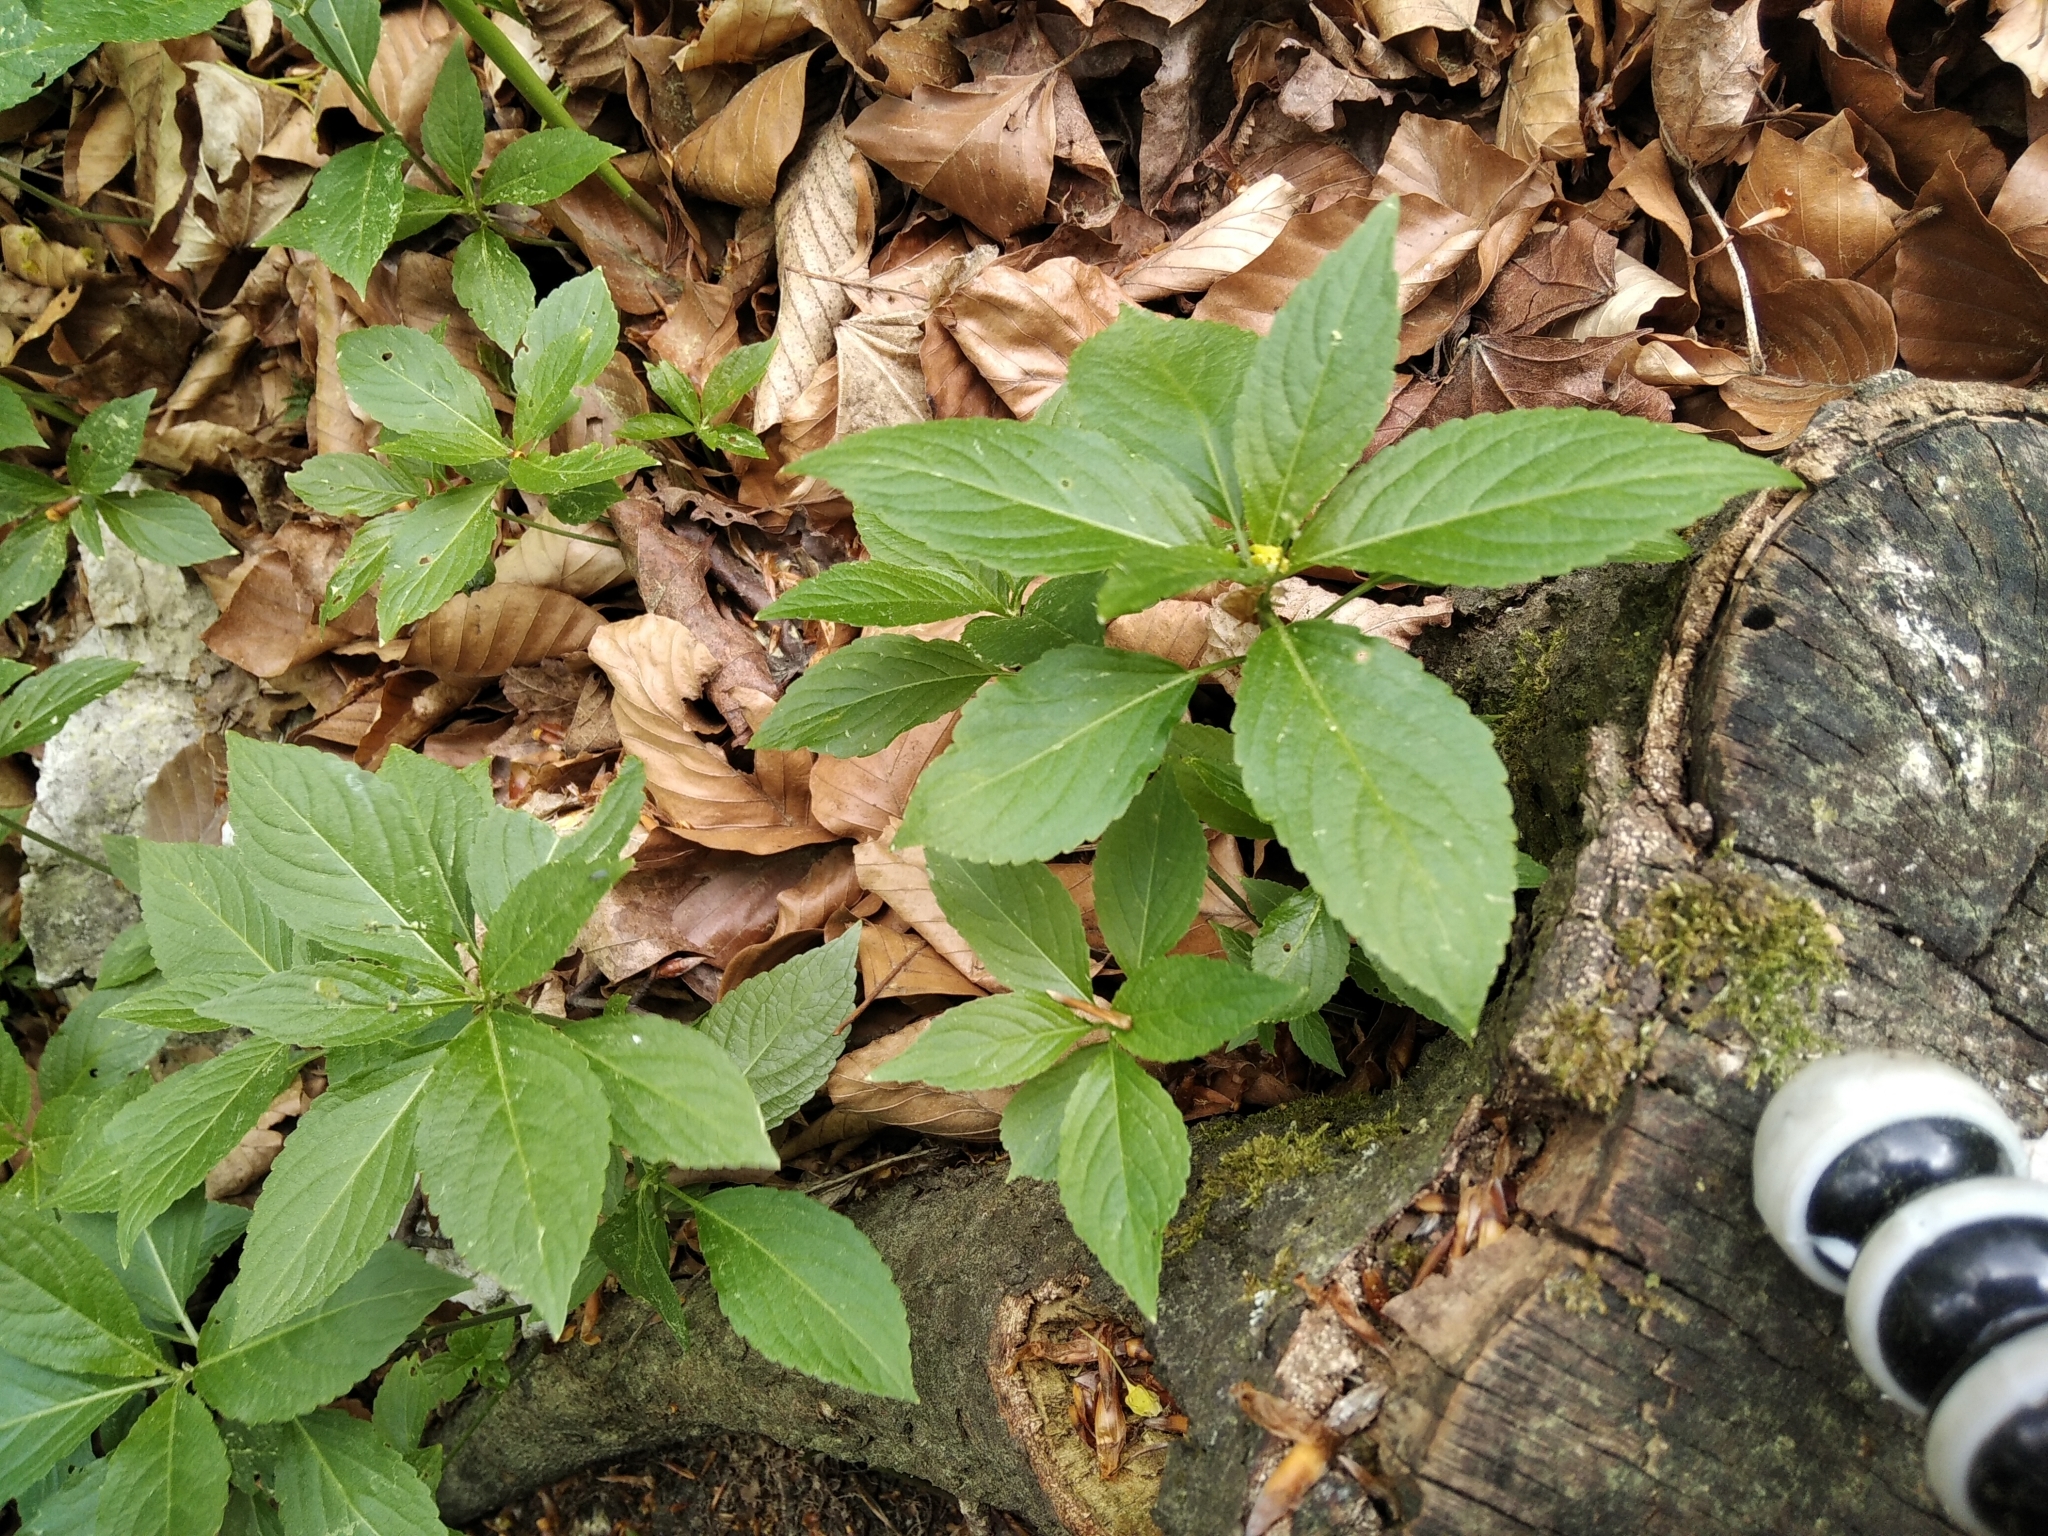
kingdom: Plantae
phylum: Tracheophyta
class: Magnoliopsida
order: Malpighiales
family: Euphorbiaceae
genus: Mercurialis
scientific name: Mercurialis perennis
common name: Dog mercury
